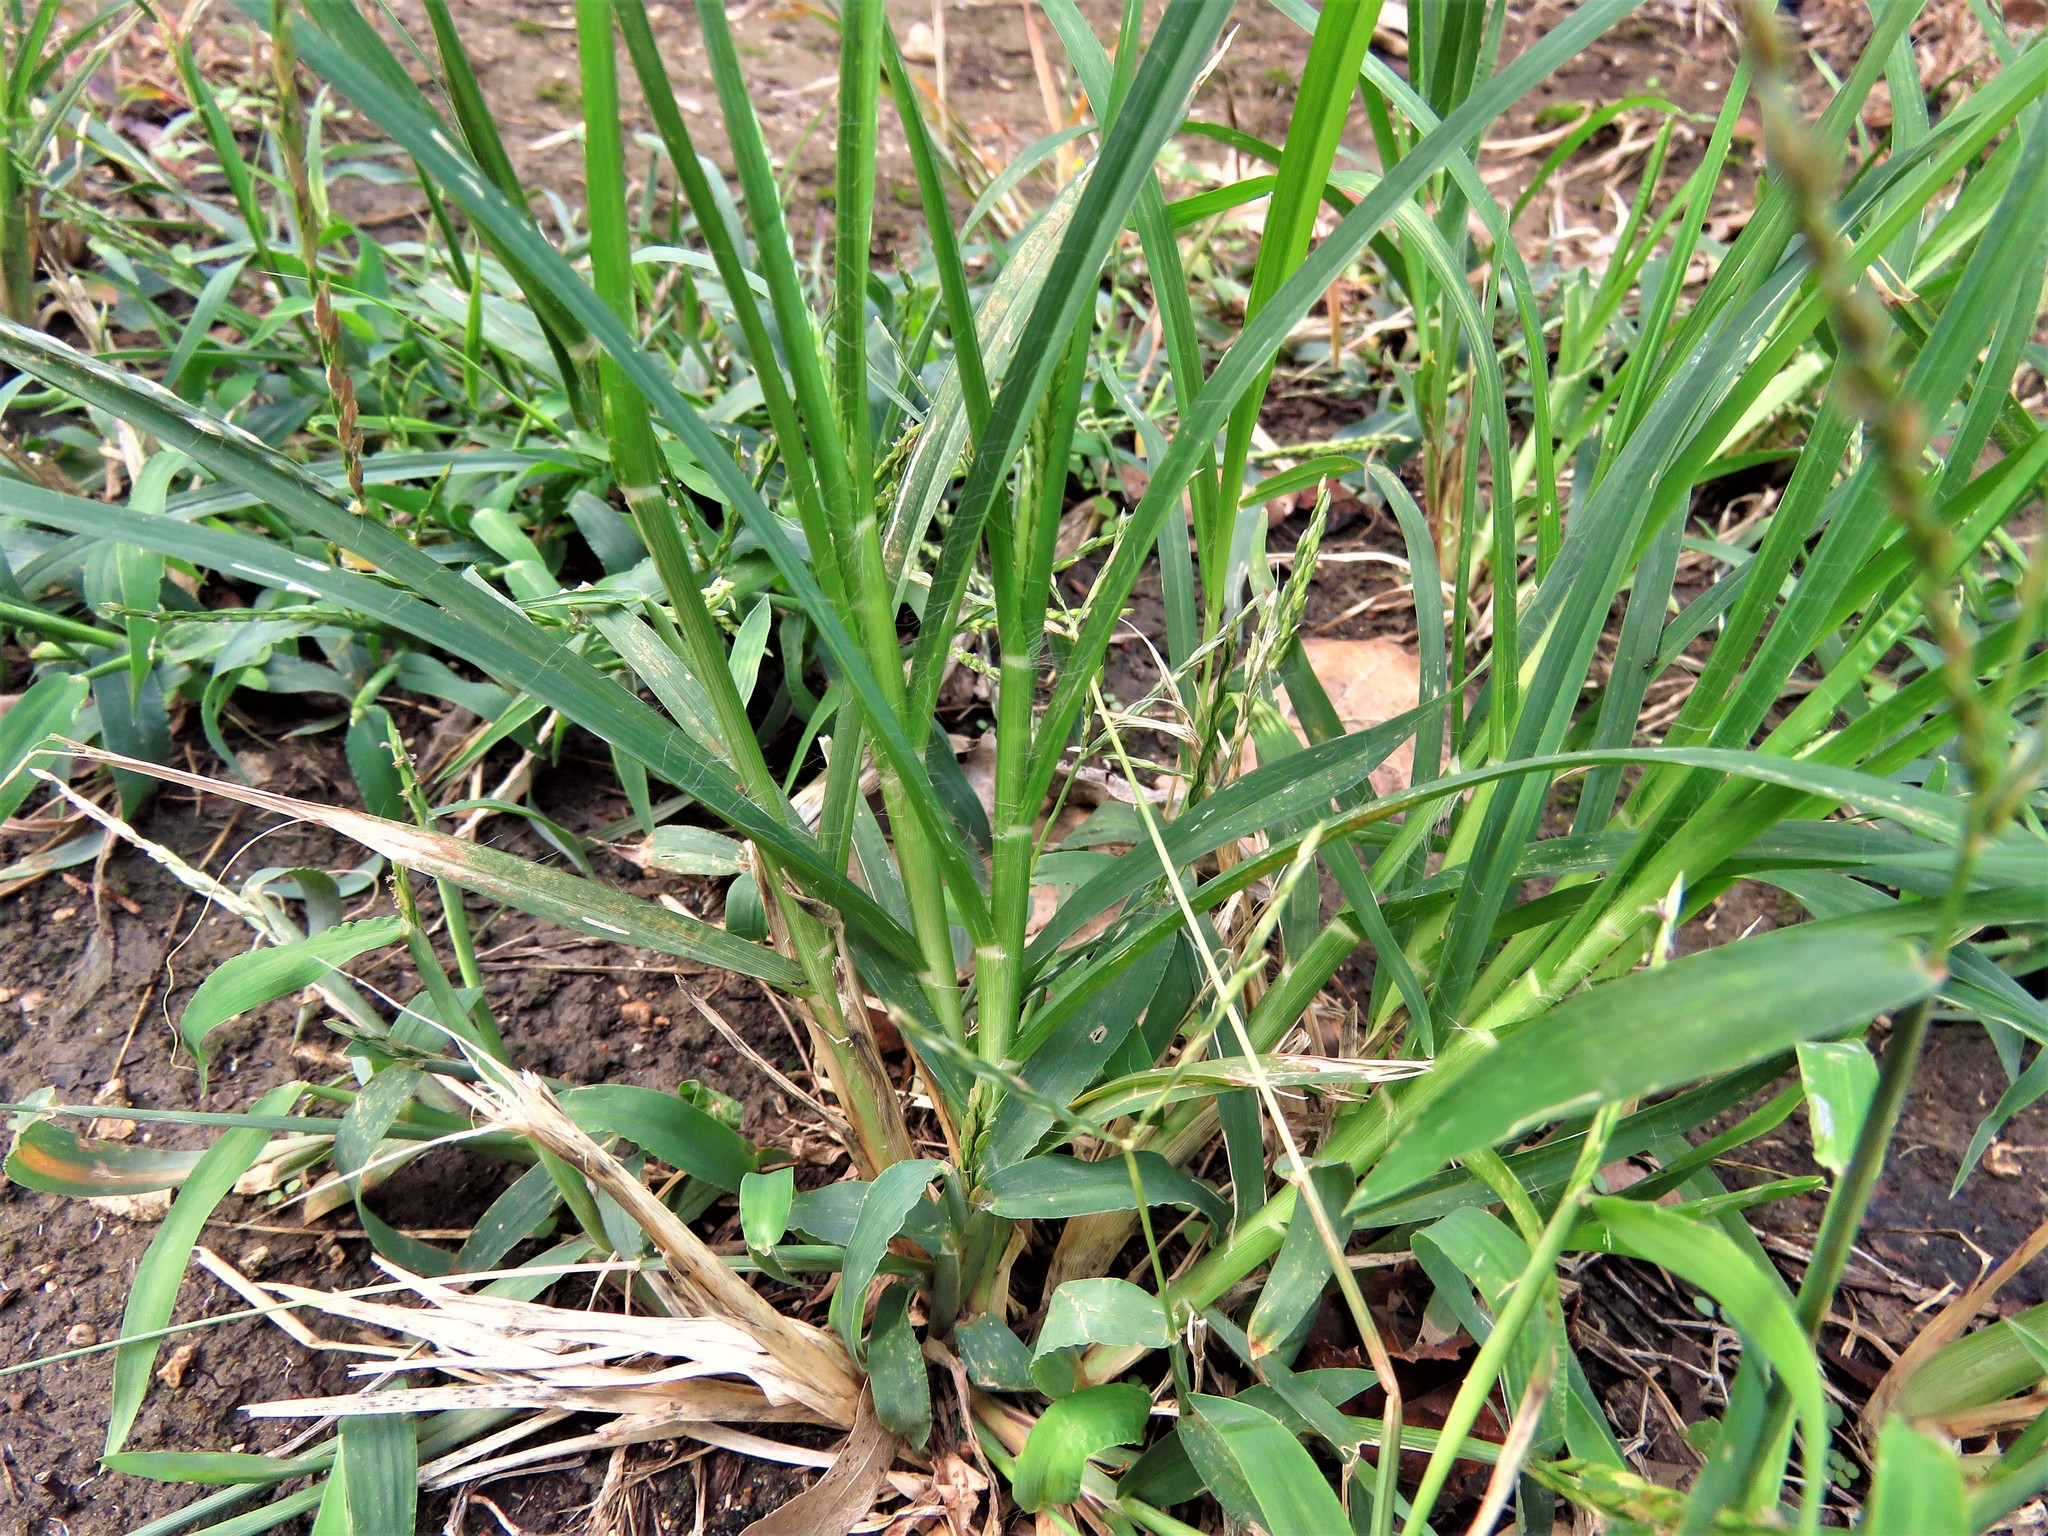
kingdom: Plantae
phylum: Tracheophyta
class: Liliopsida
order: Poales
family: Poaceae
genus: Eleusine
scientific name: Eleusine indica
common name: Yard-grass
